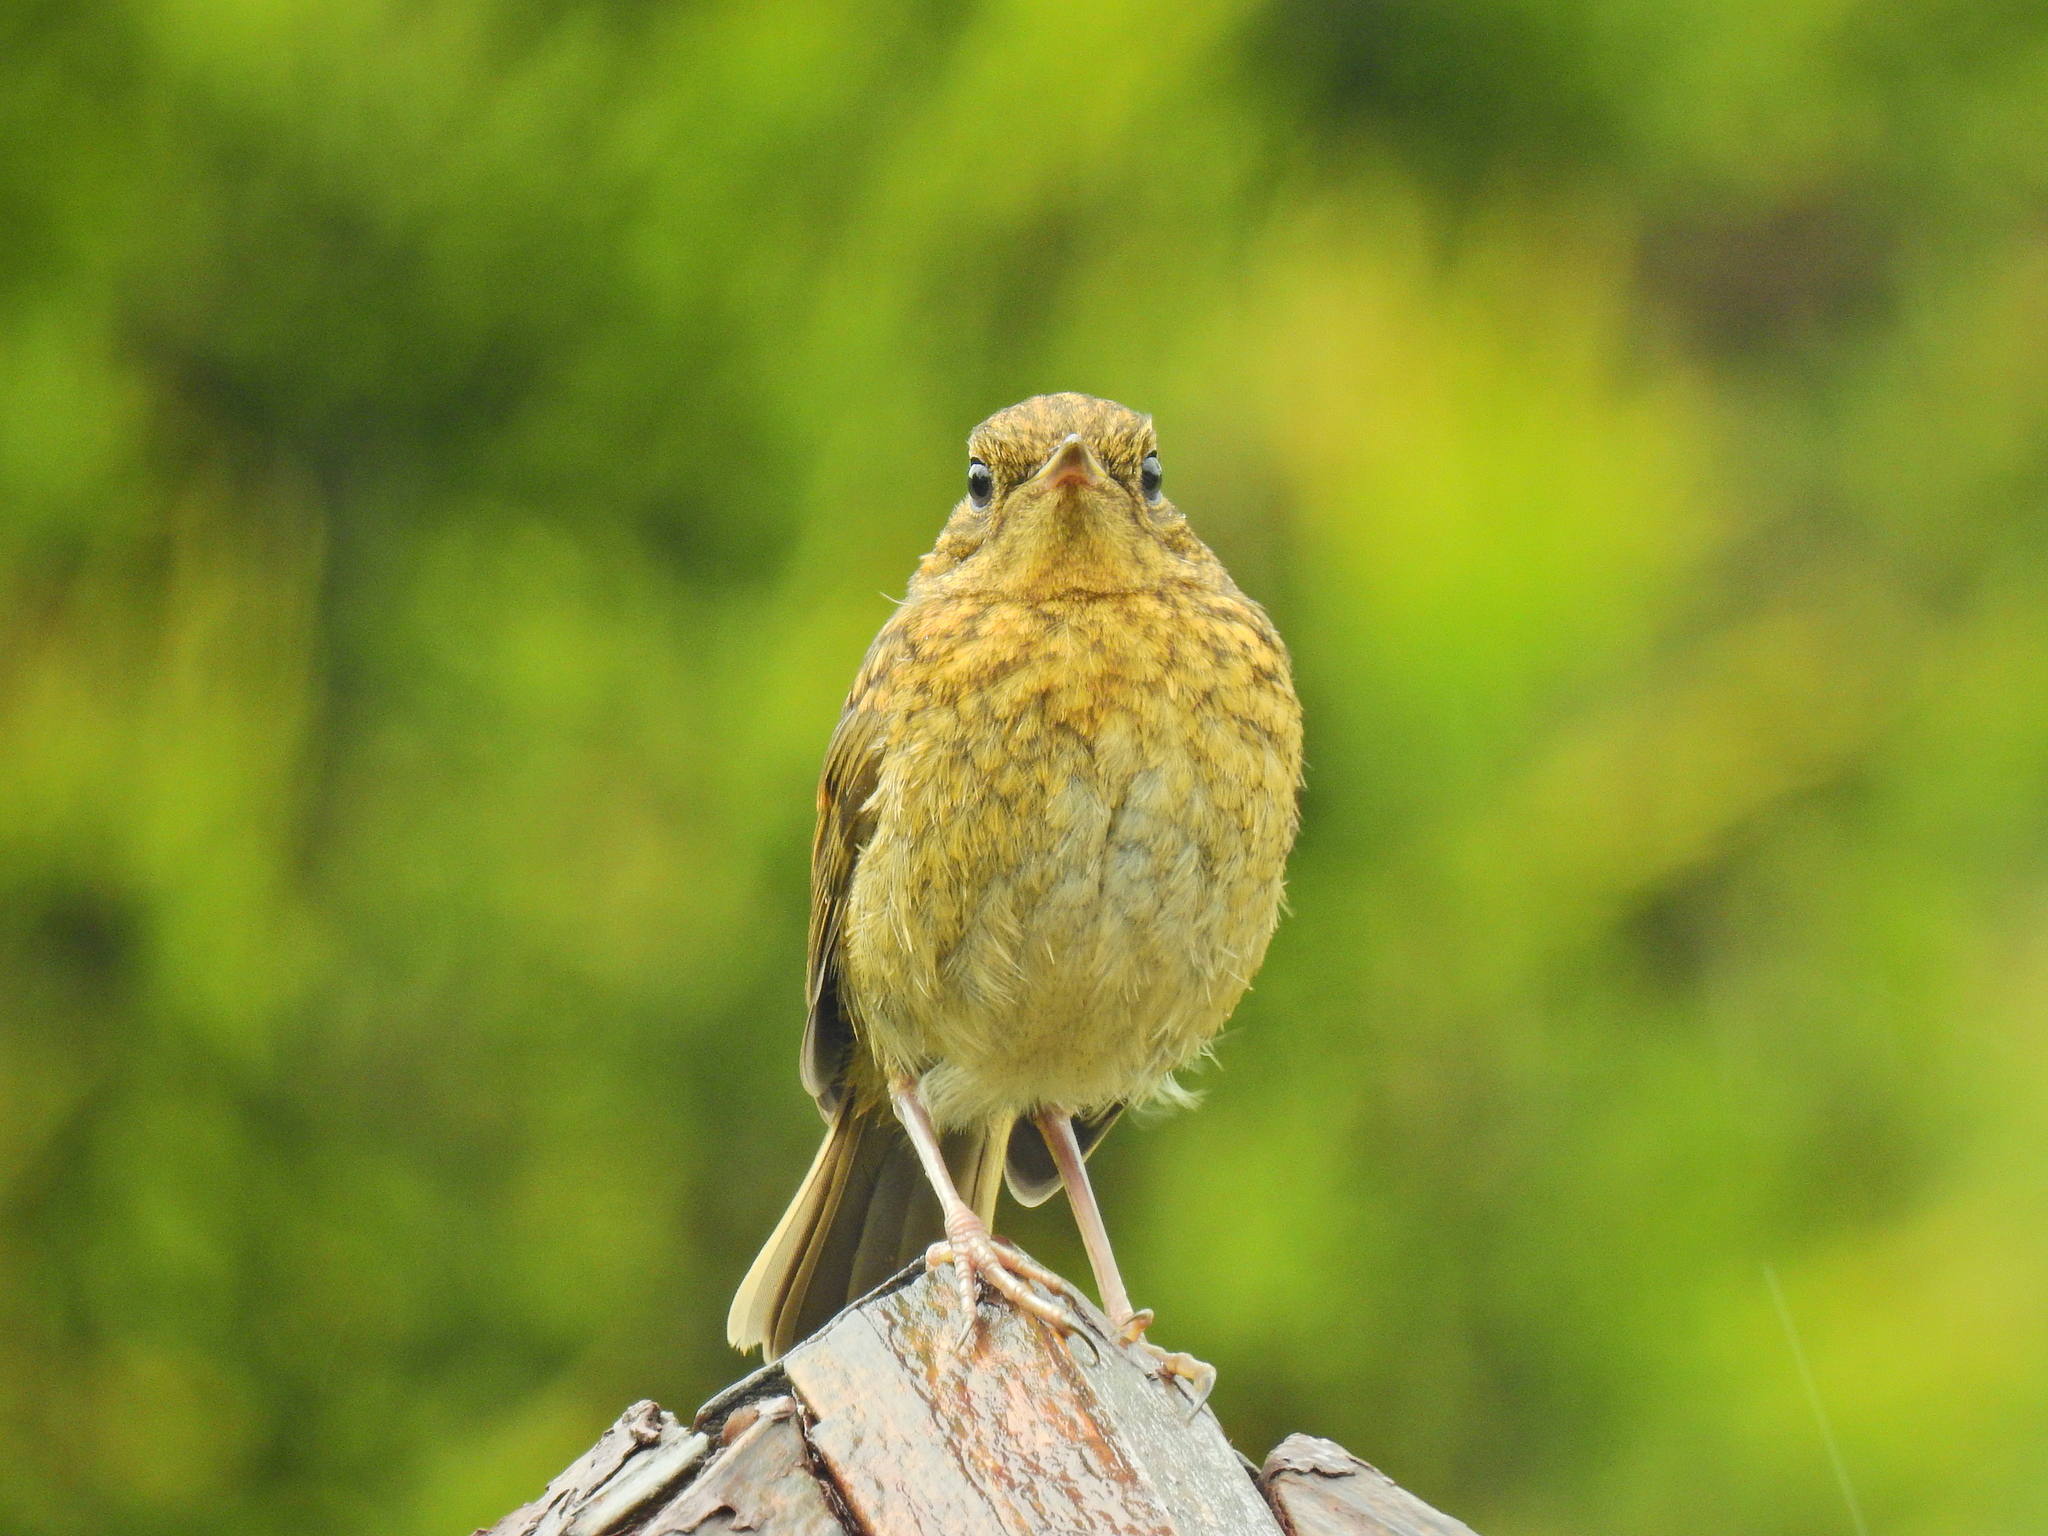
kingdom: Animalia
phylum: Chordata
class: Aves
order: Passeriformes
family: Muscicapidae
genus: Erithacus
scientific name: Erithacus rubecula
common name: European robin
